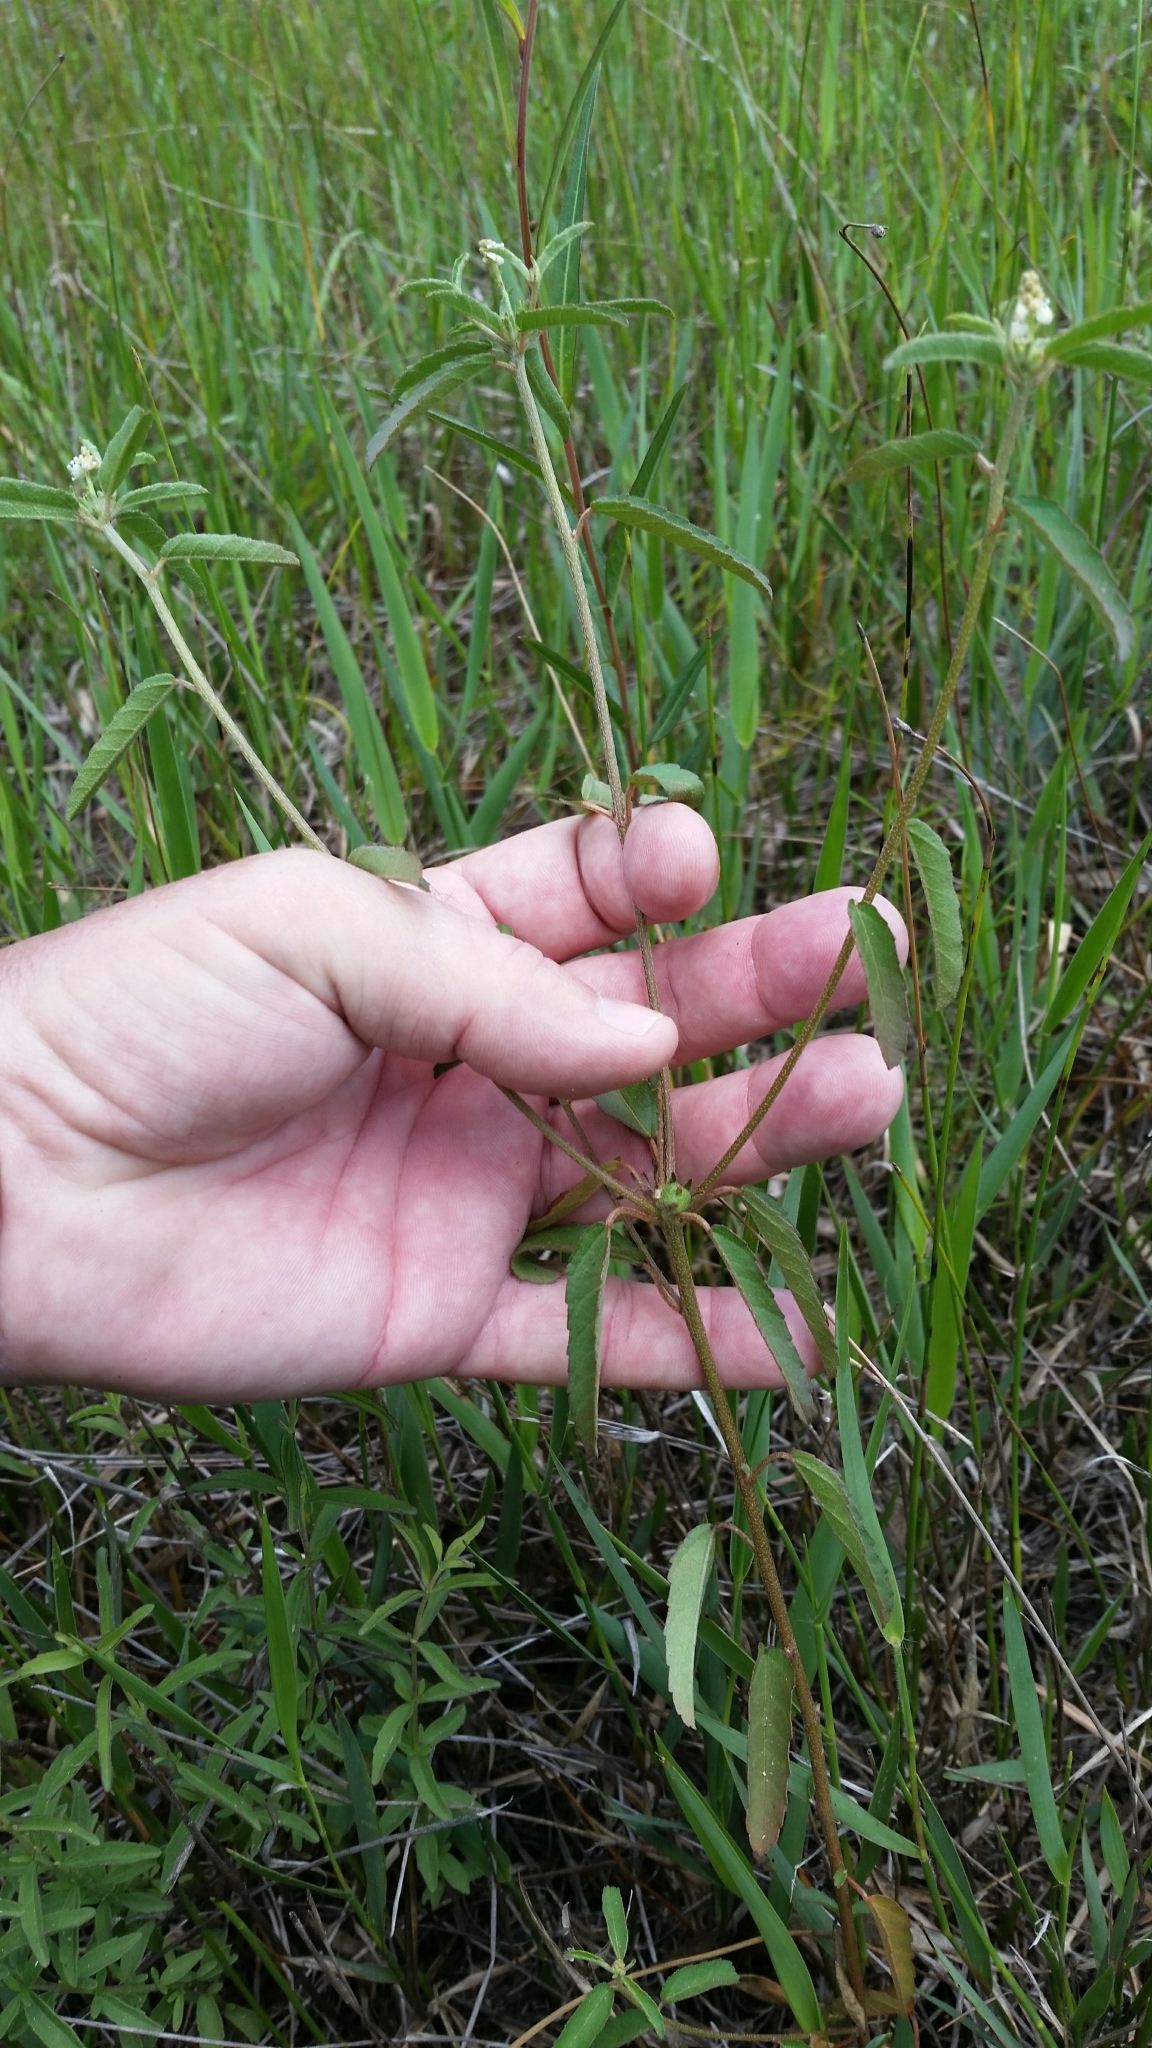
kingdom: Plantae
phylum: Tracheophyta
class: Magnoliopsida
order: Malpighiales
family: Euphorbiaceae
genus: Croton
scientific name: Croton glandulosus
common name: Tropic croton
